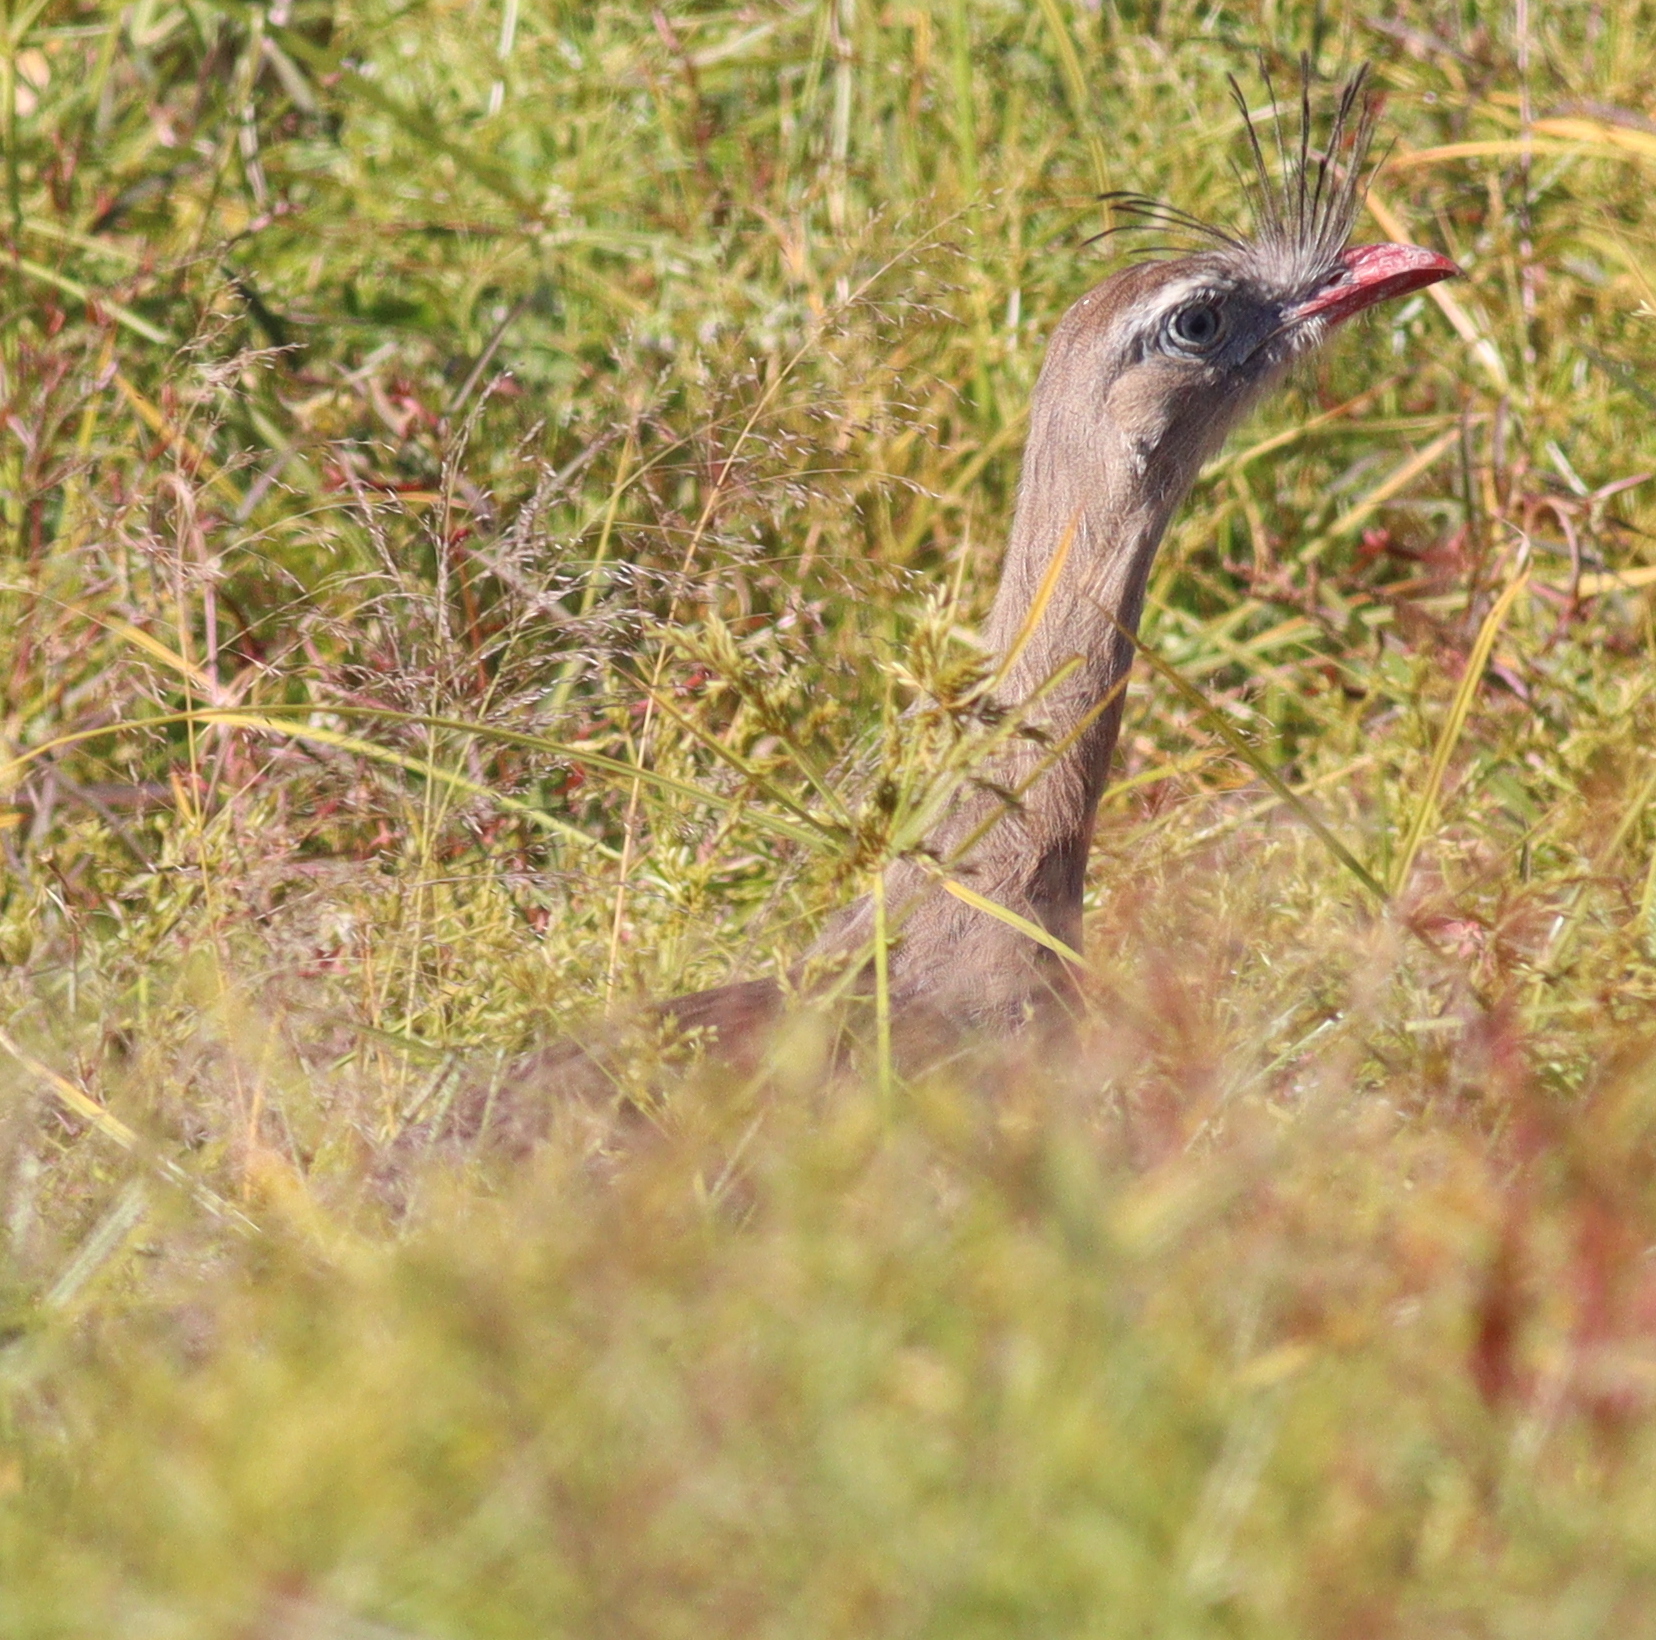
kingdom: Animalia
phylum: Chordata
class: Aves
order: Cariamiformes
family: Cariamidae
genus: Cariama
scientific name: Cariama cristata
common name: Red-legged seriema
